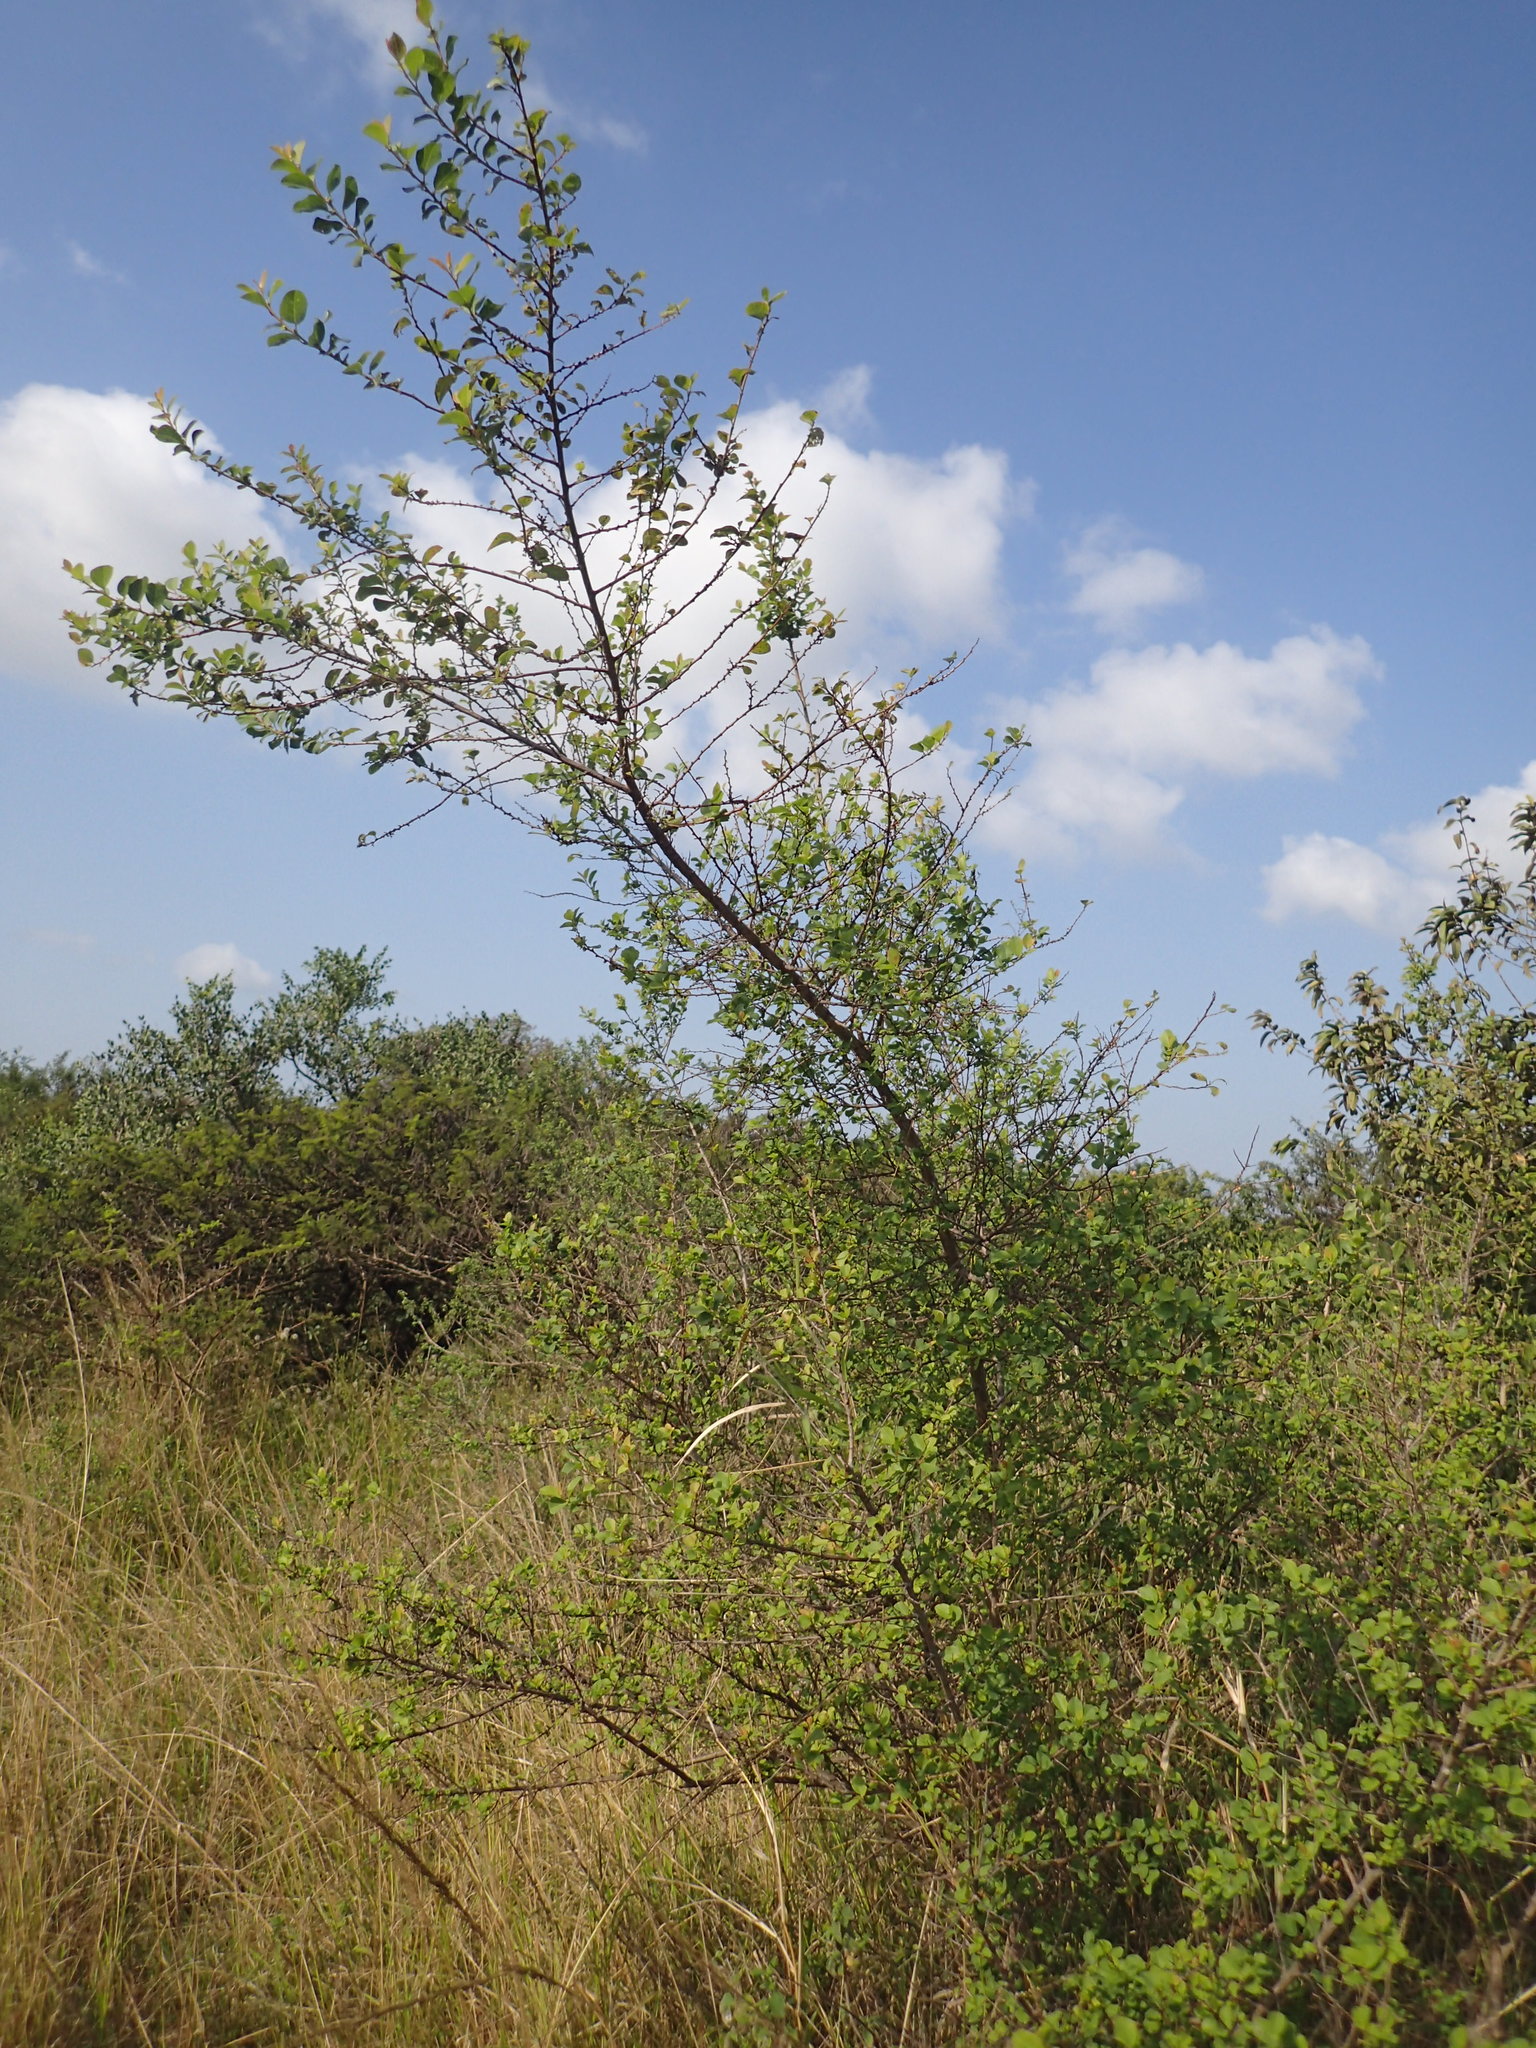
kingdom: Plantae
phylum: Tracheophyta
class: Magnoliopsida
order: Malpighiales
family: Phyllanthaceae
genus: Flueggea
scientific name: Flueggea virosa
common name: Common bushweed
